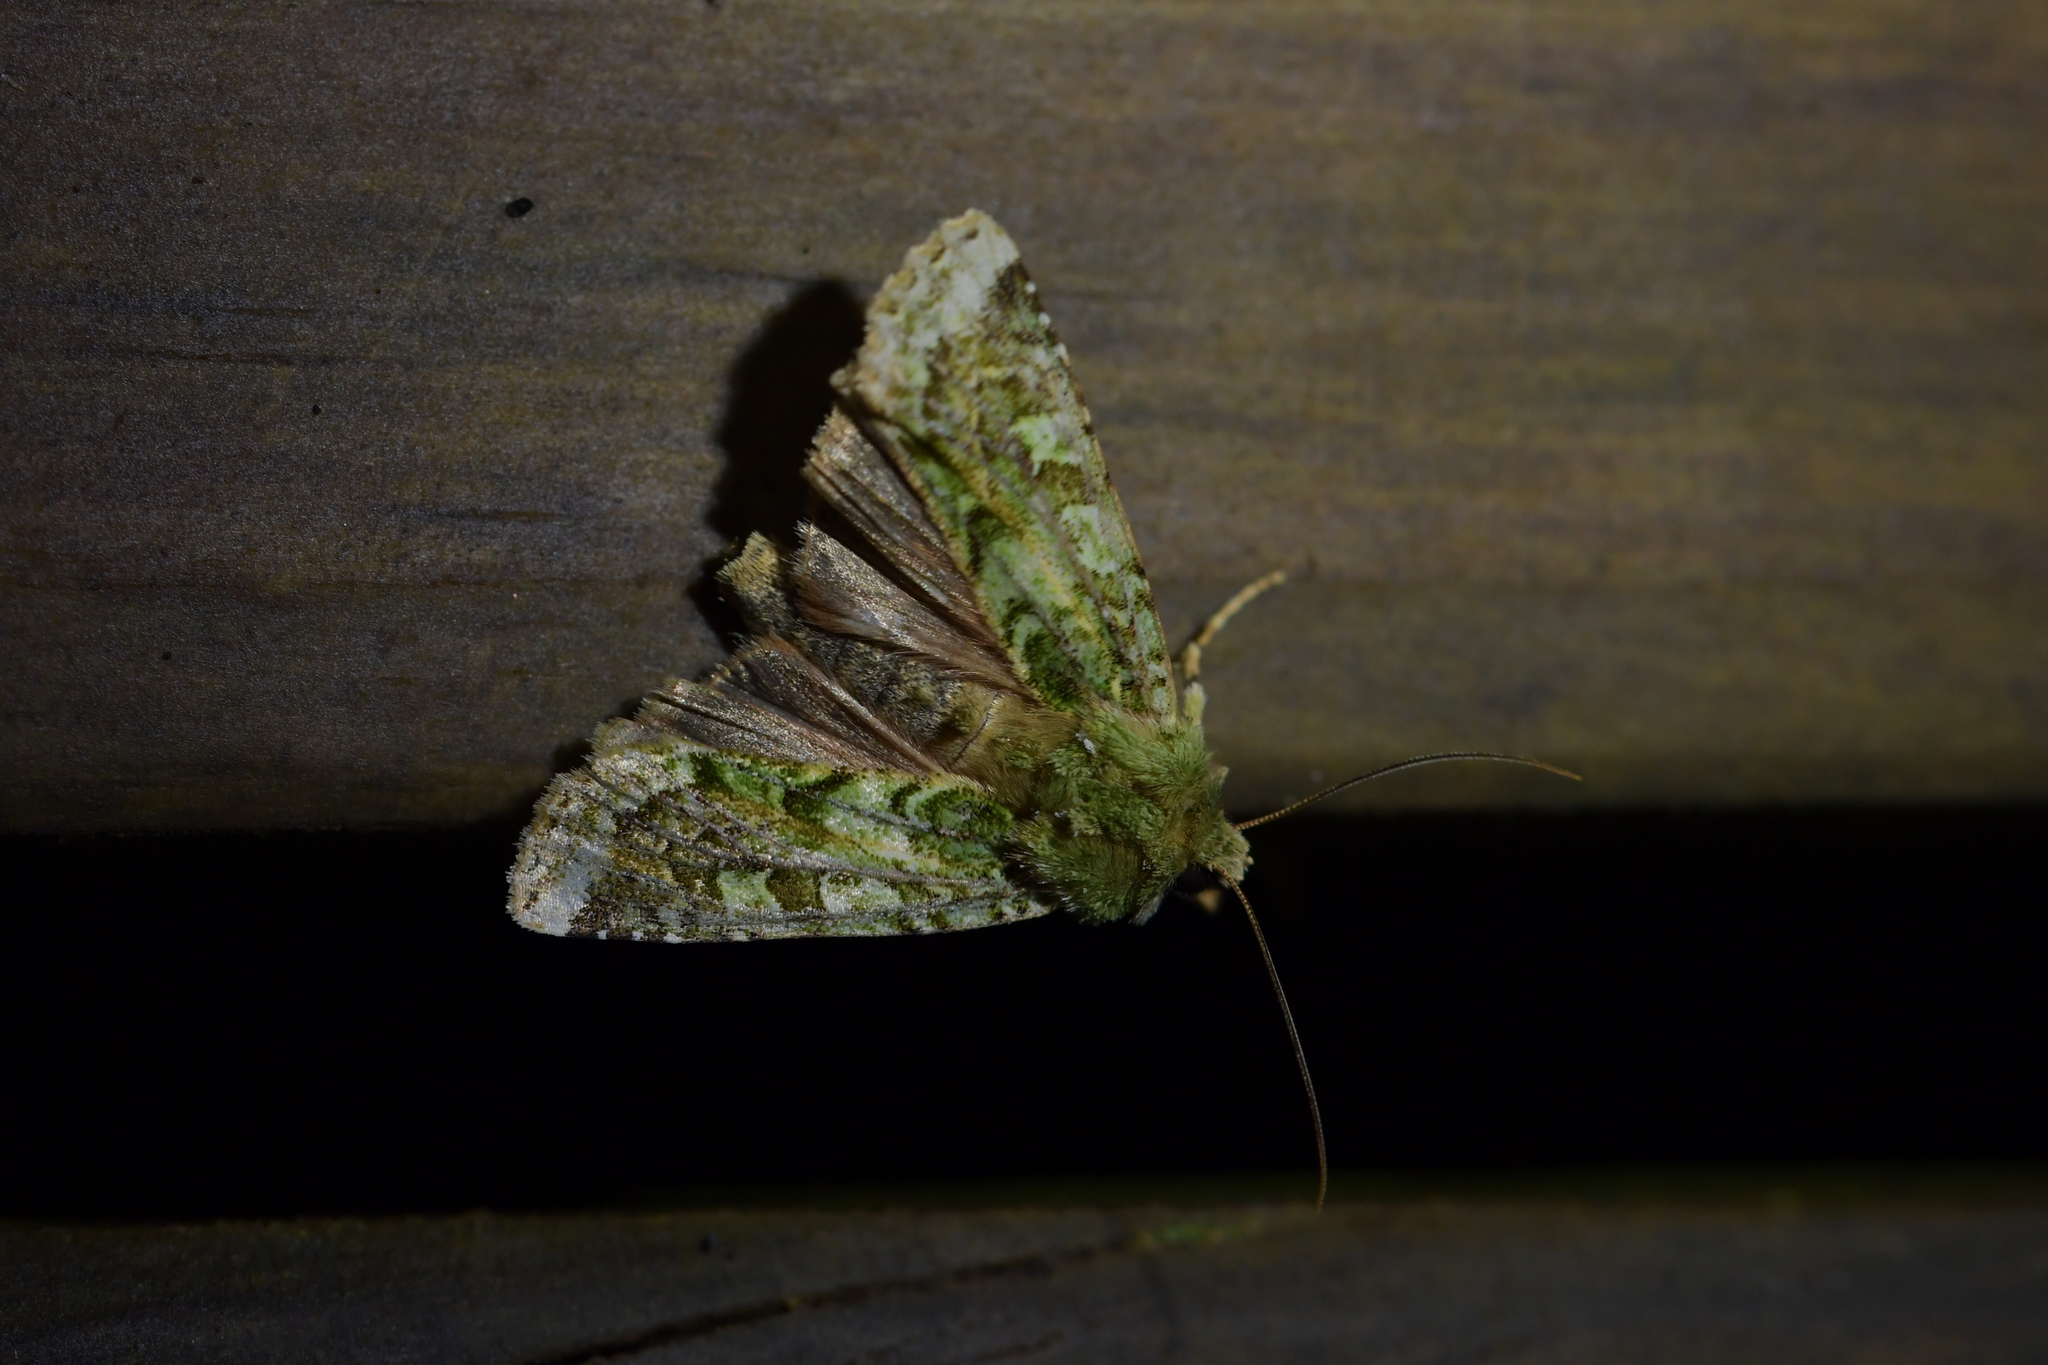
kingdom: Animalia
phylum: Arthropoda
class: Insecta
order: Lepidoptera
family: Noctuidae
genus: Feredayia
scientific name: Feredayia grammosa
